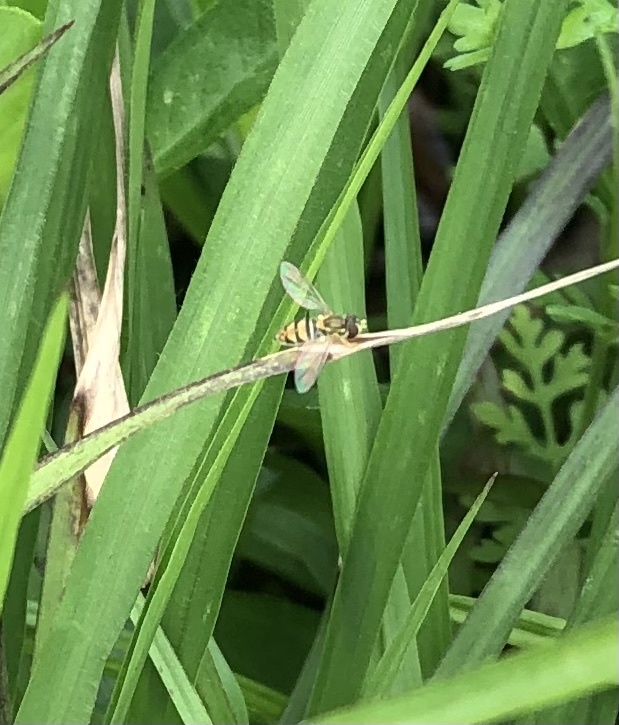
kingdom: Animalia
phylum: Arthropoda
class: Insecta
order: Diptera
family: Syrphidae
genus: Toxomerus
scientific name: Toxomerus marginatus
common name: Syrphid fly
